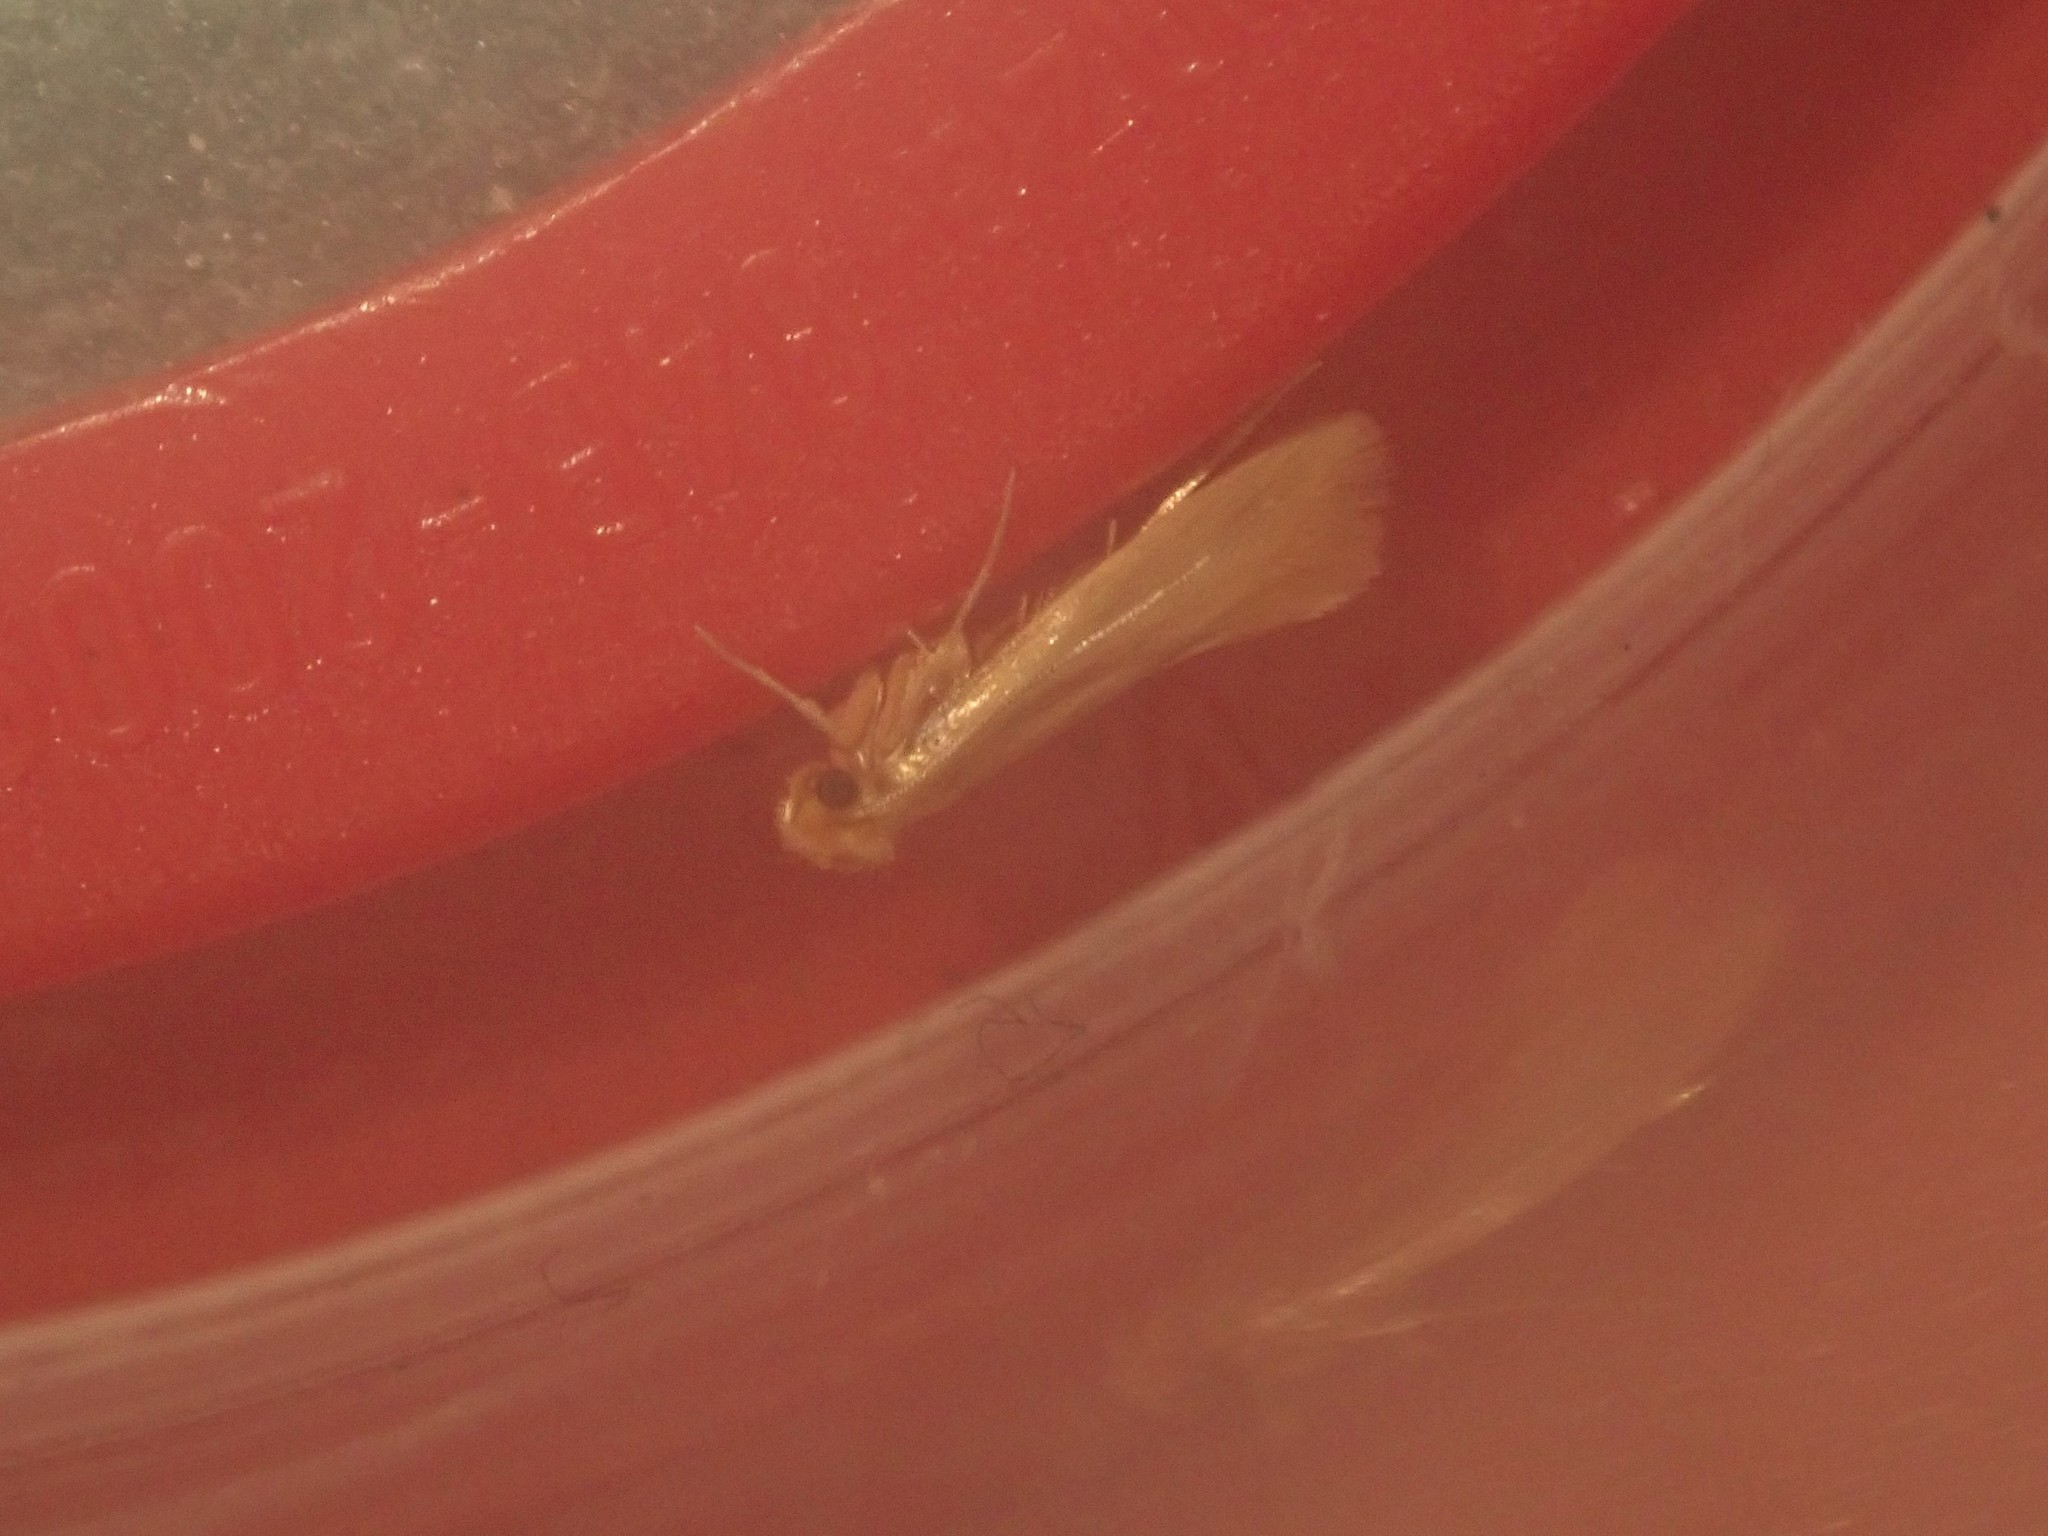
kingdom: Animalia
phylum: Arthropoda
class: Insecta
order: Lepidoptera
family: Tineidae
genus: Tineola
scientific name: Tineola bisselliella
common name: Webbing clothes moth
